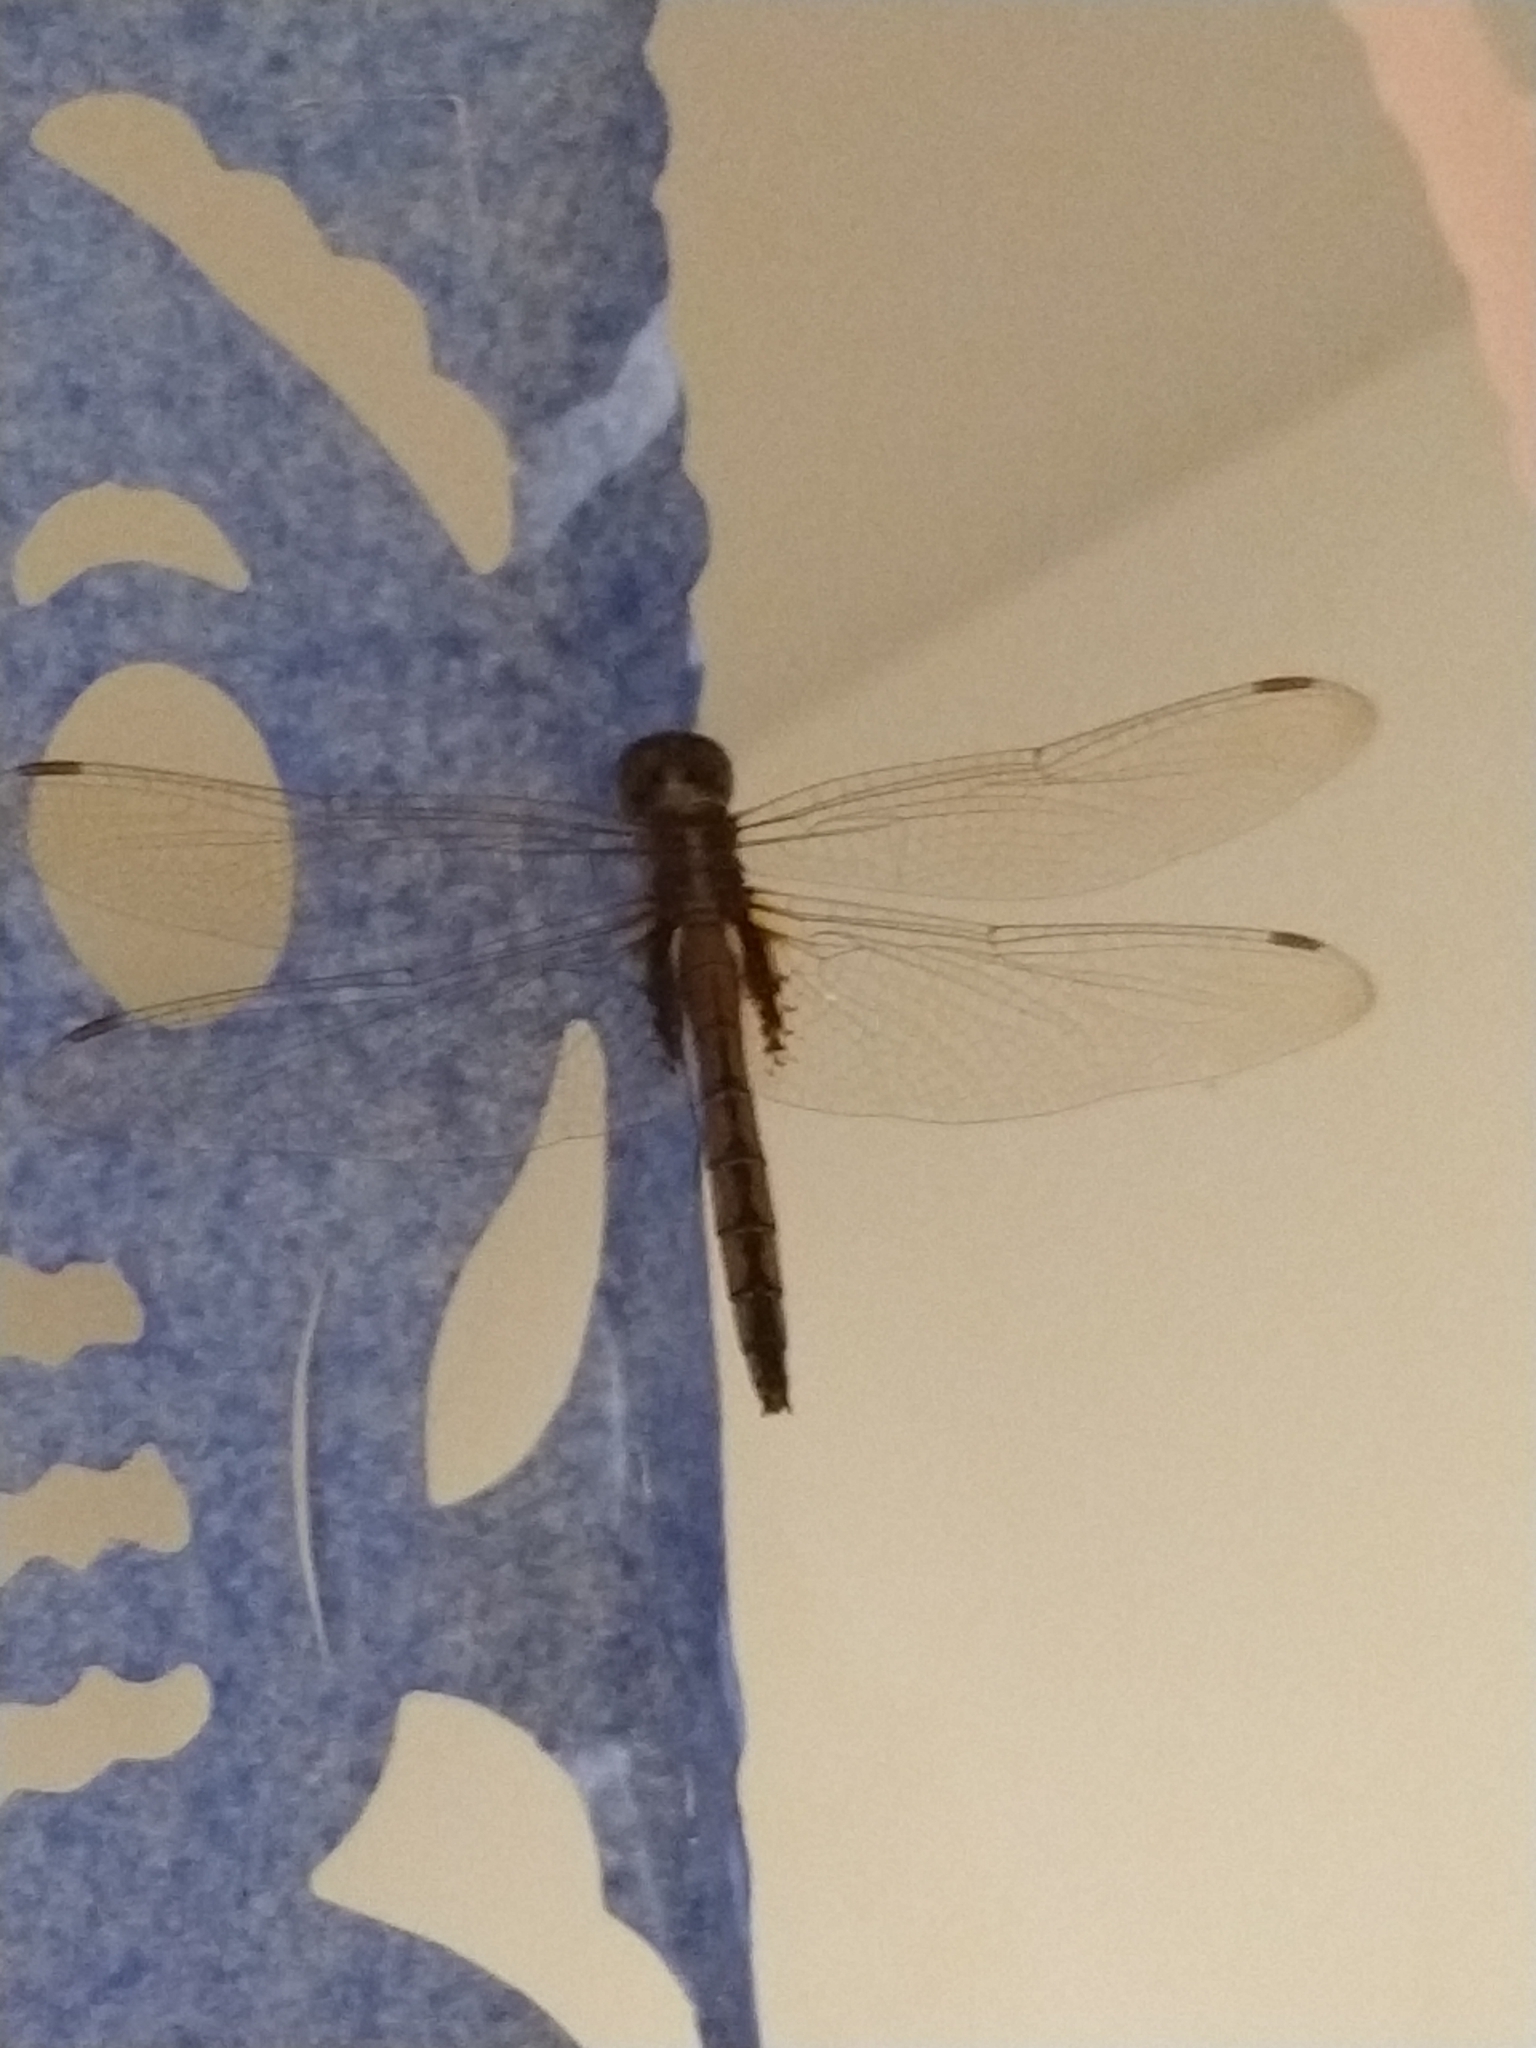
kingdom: Animalia
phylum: Arthropoda
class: Insecta
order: Odonata
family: Libellulidae
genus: Tauriphila
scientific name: Tauriphila risi
